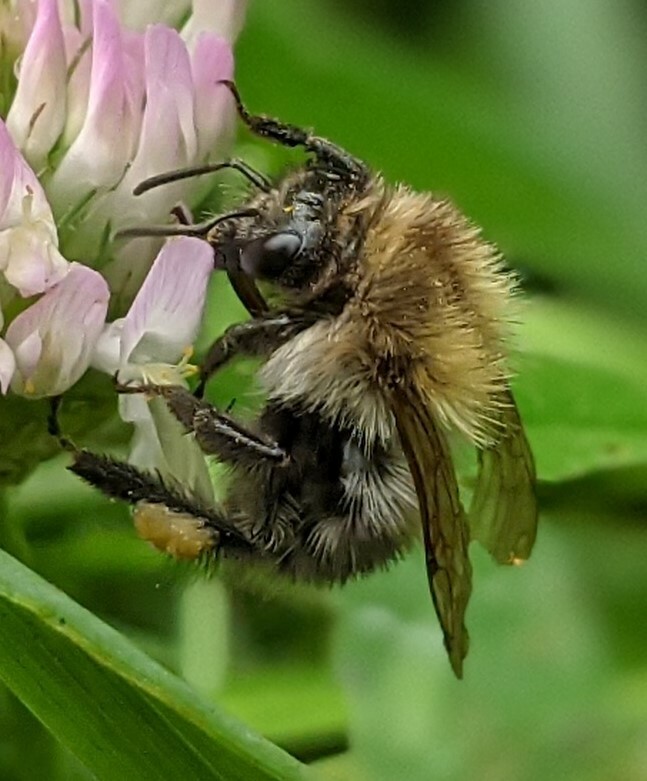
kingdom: Animalia
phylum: Arthropoda
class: Insecta
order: Hymenoptera
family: Apidae
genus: Bombus
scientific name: Bombus pascuorum
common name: Common carder bee
